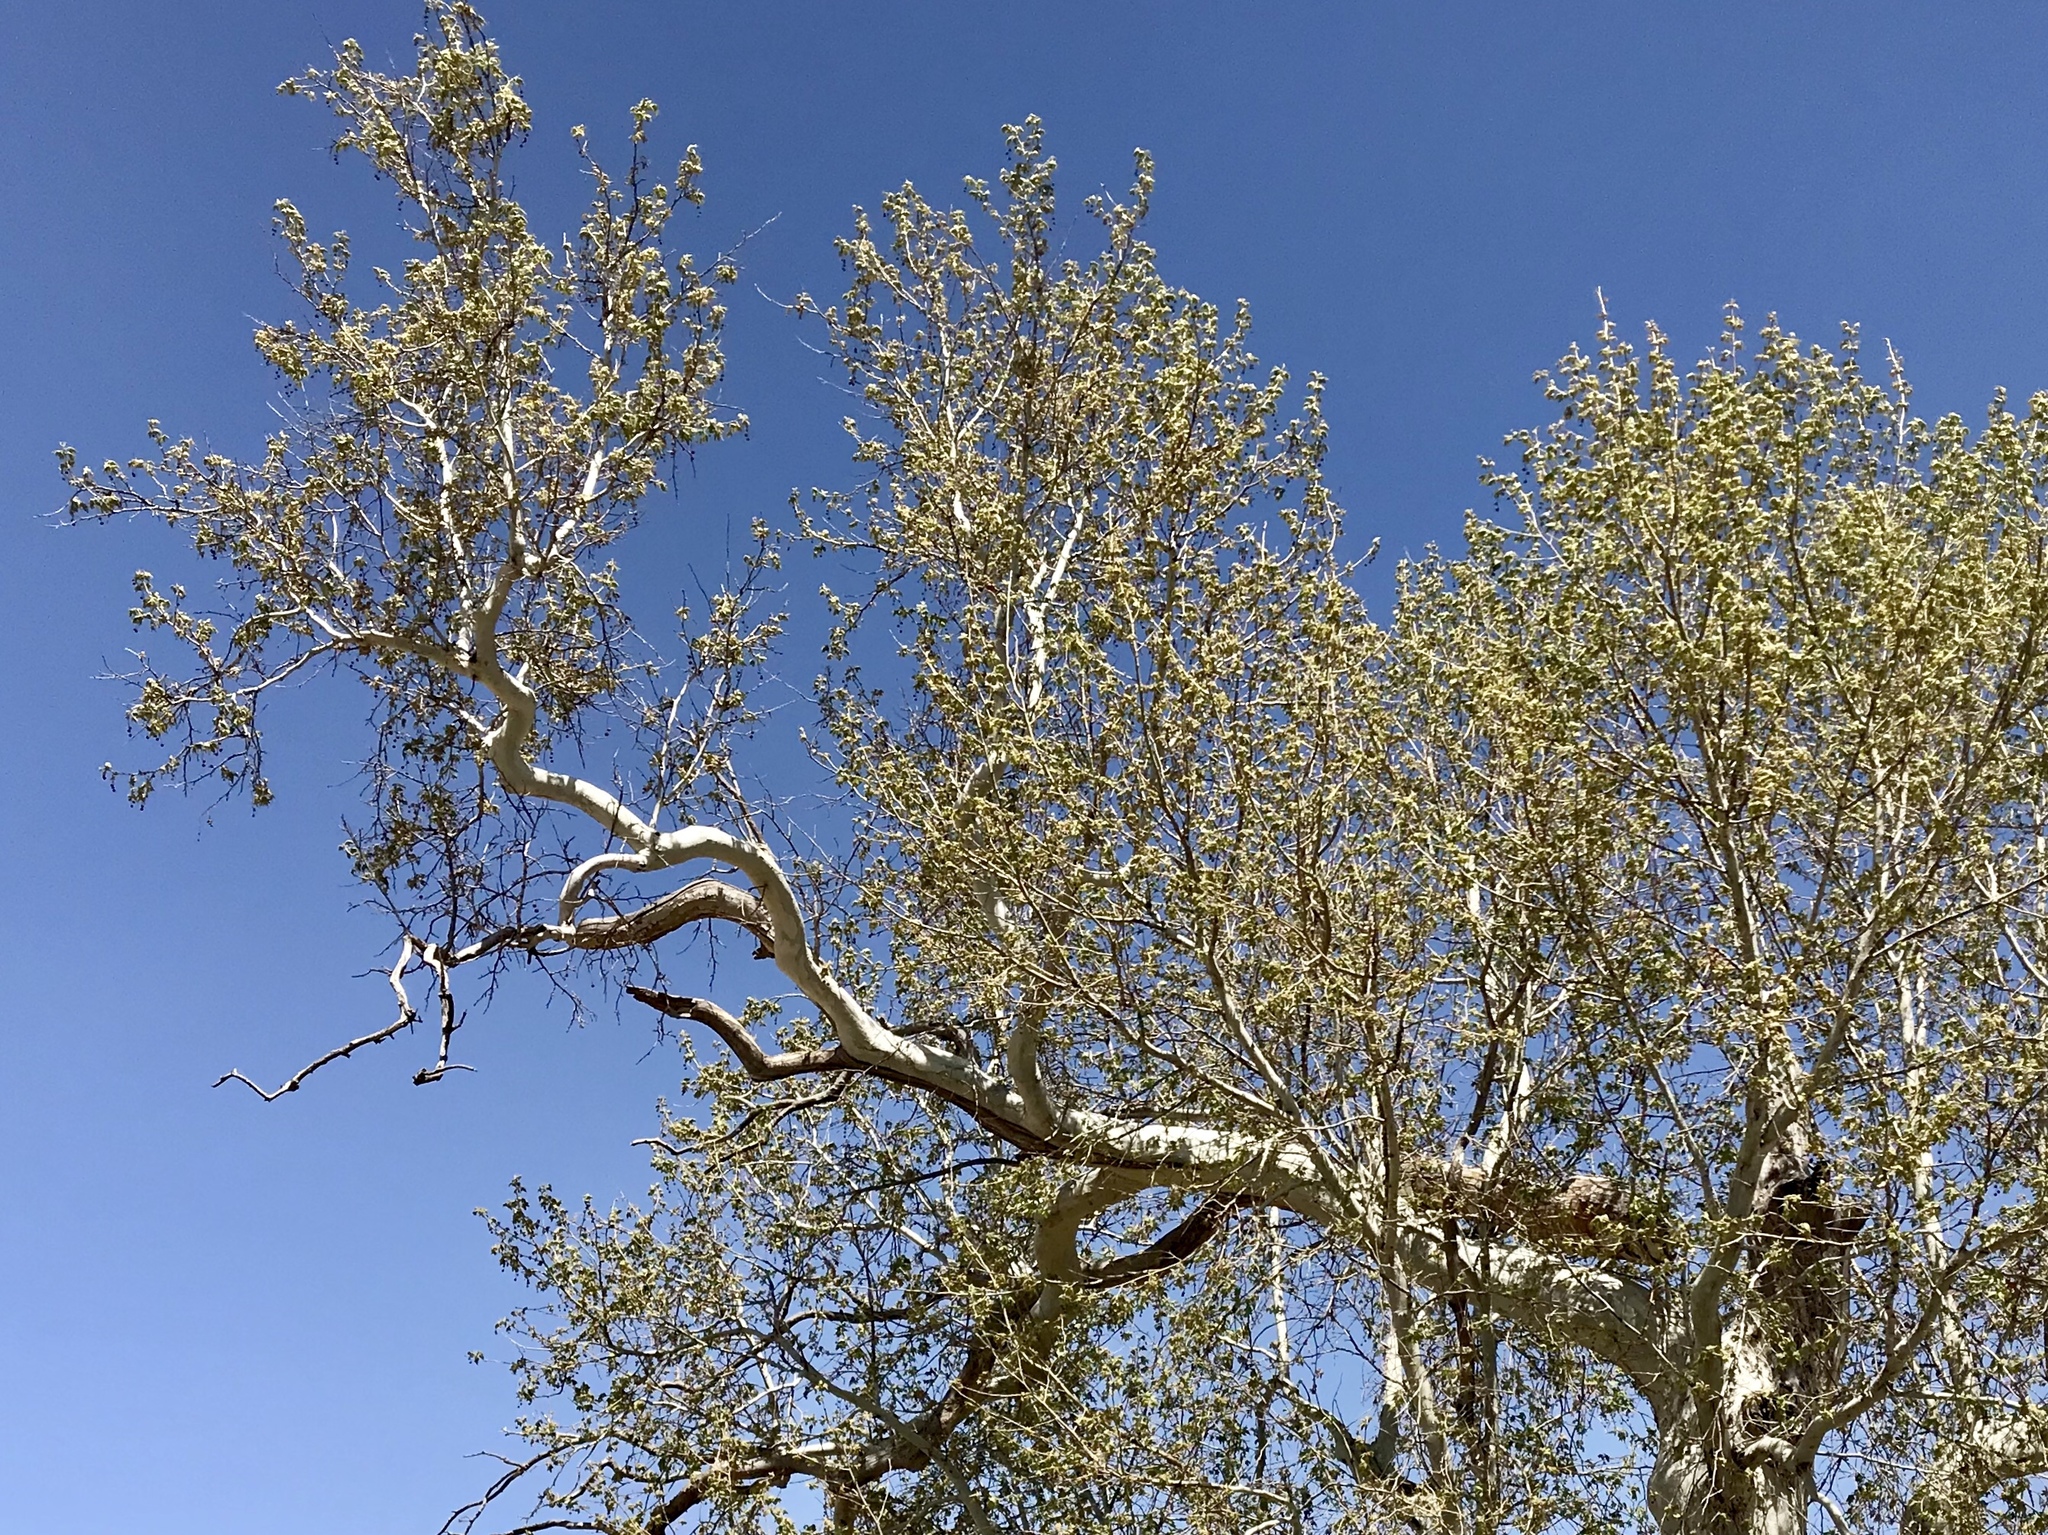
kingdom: Plantae
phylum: Tracheophyta
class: Magnoliopsida
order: Proteales
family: Platanaceae
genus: Platanus
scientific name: Platanus wrightii
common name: Arizona sycamore
